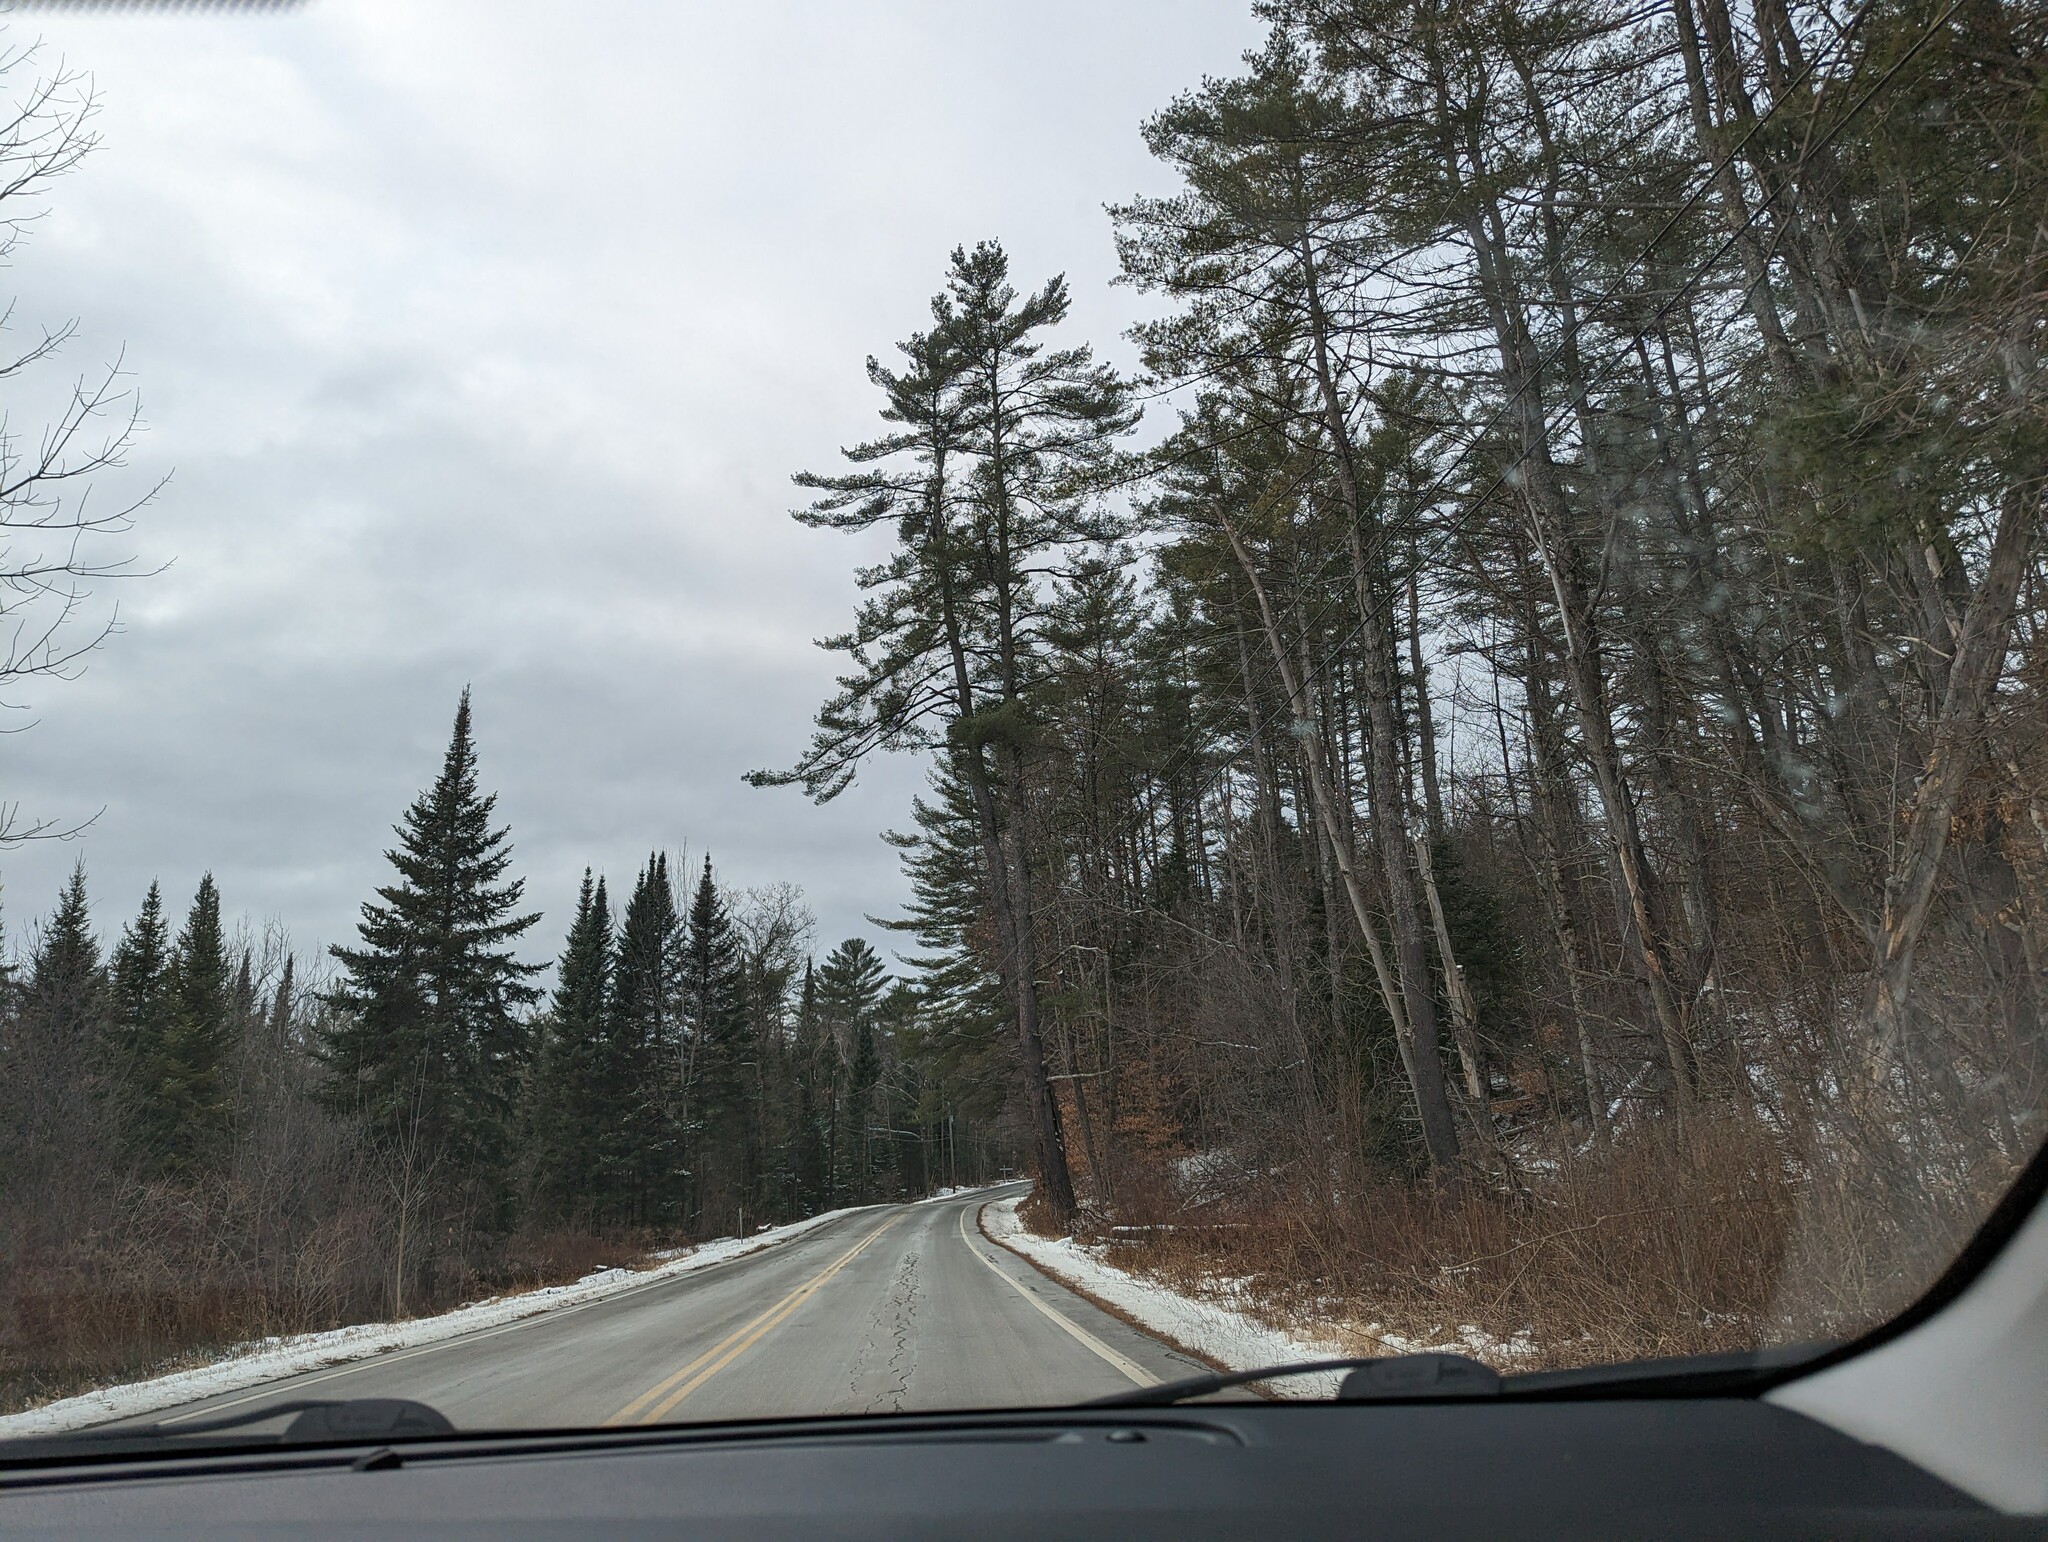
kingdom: Plantae
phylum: Tracheophyta
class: Pinopsida
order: Pinales
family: Pinaceae
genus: Pinus
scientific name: Pinus strobus
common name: Weymouth pine
